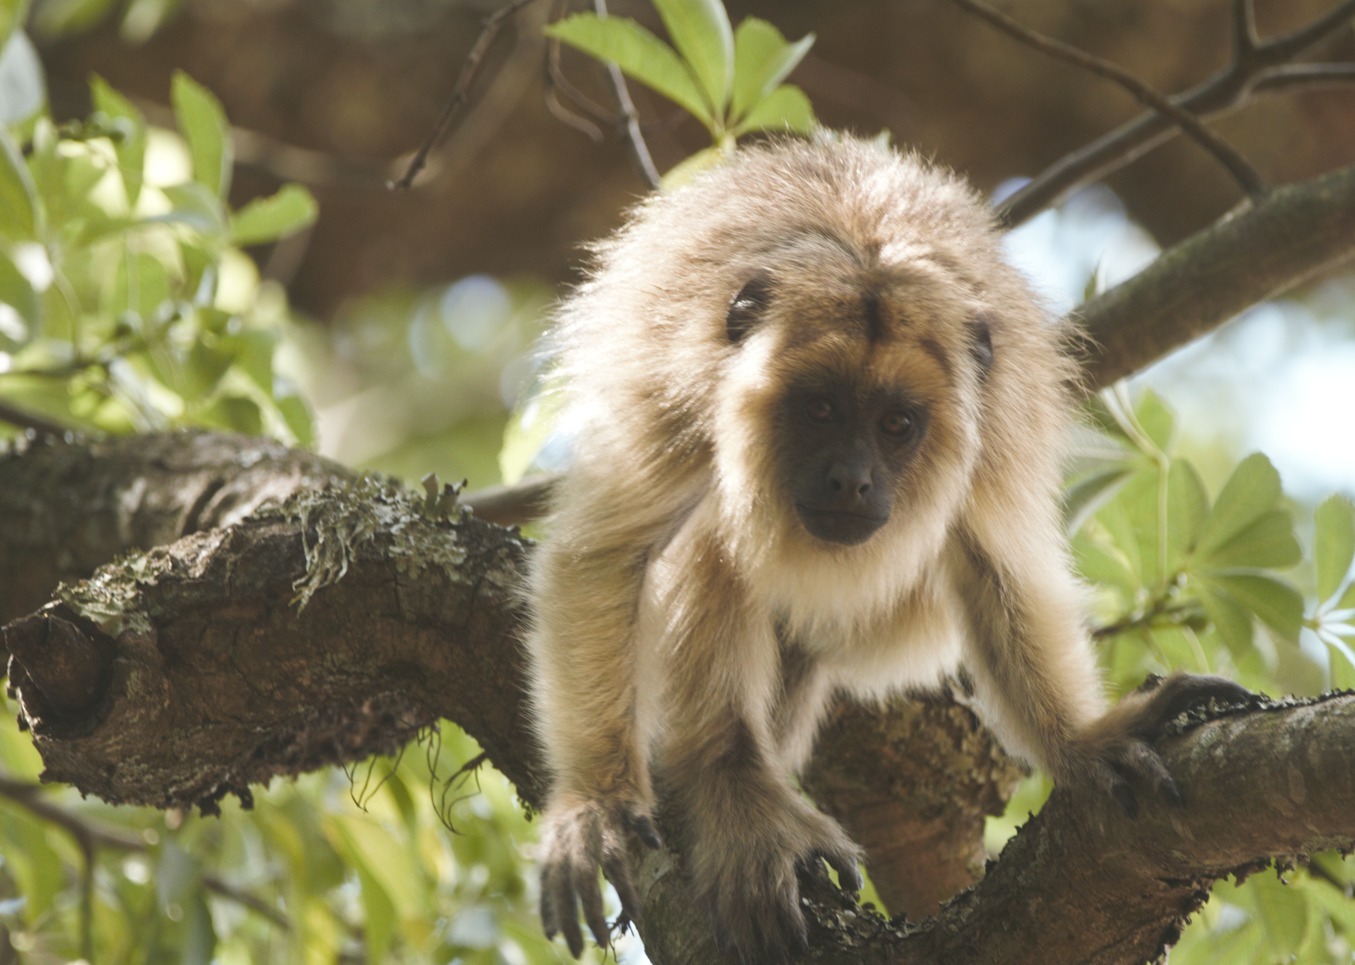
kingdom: Animalia
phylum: Chordata
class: Mammalia
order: Primates
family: Atelidae
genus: Alouatta
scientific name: Alouatta caraya
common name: Black howler
